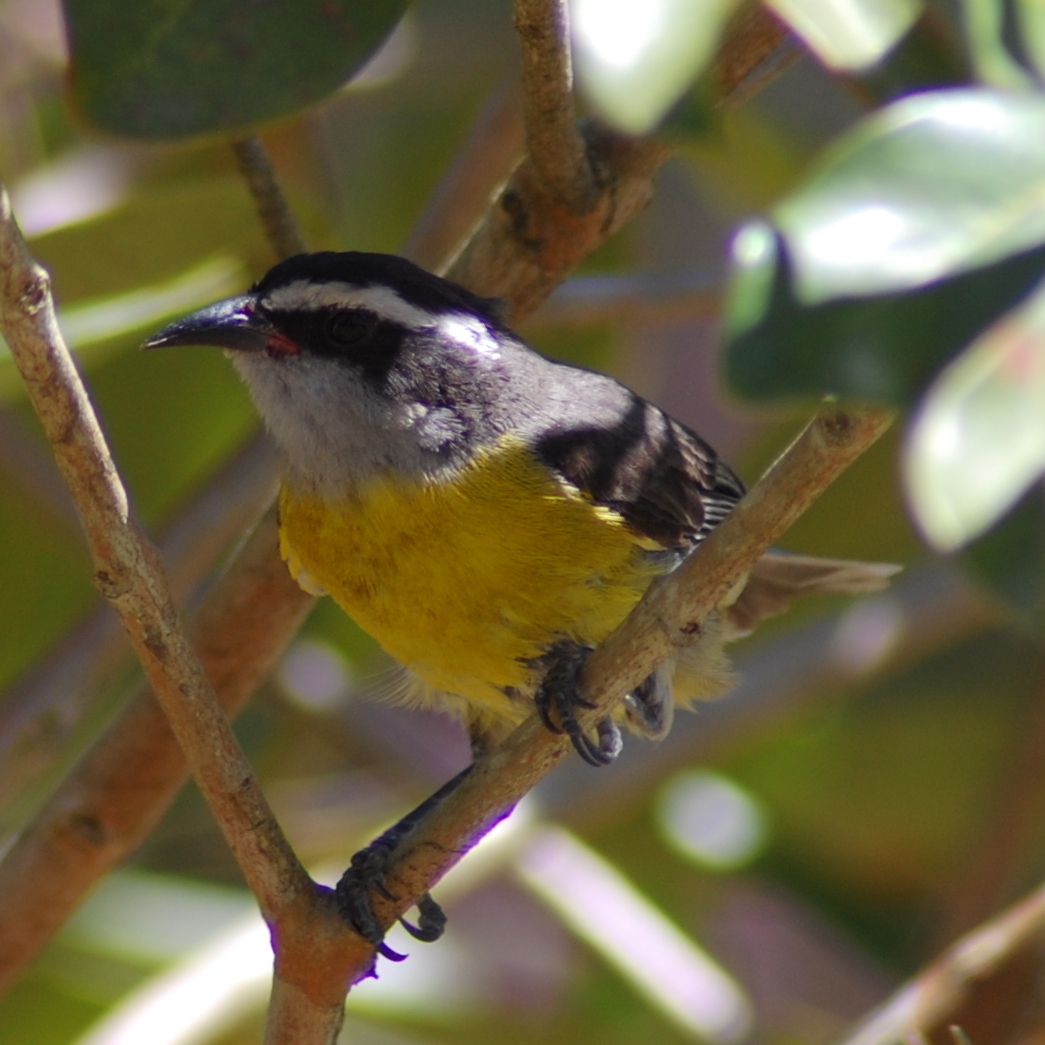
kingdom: Animalia
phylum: Chordata
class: Aves
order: Passeriformes
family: Thraupidae
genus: Coereba
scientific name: Coereba flaveola
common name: Bananaquit
